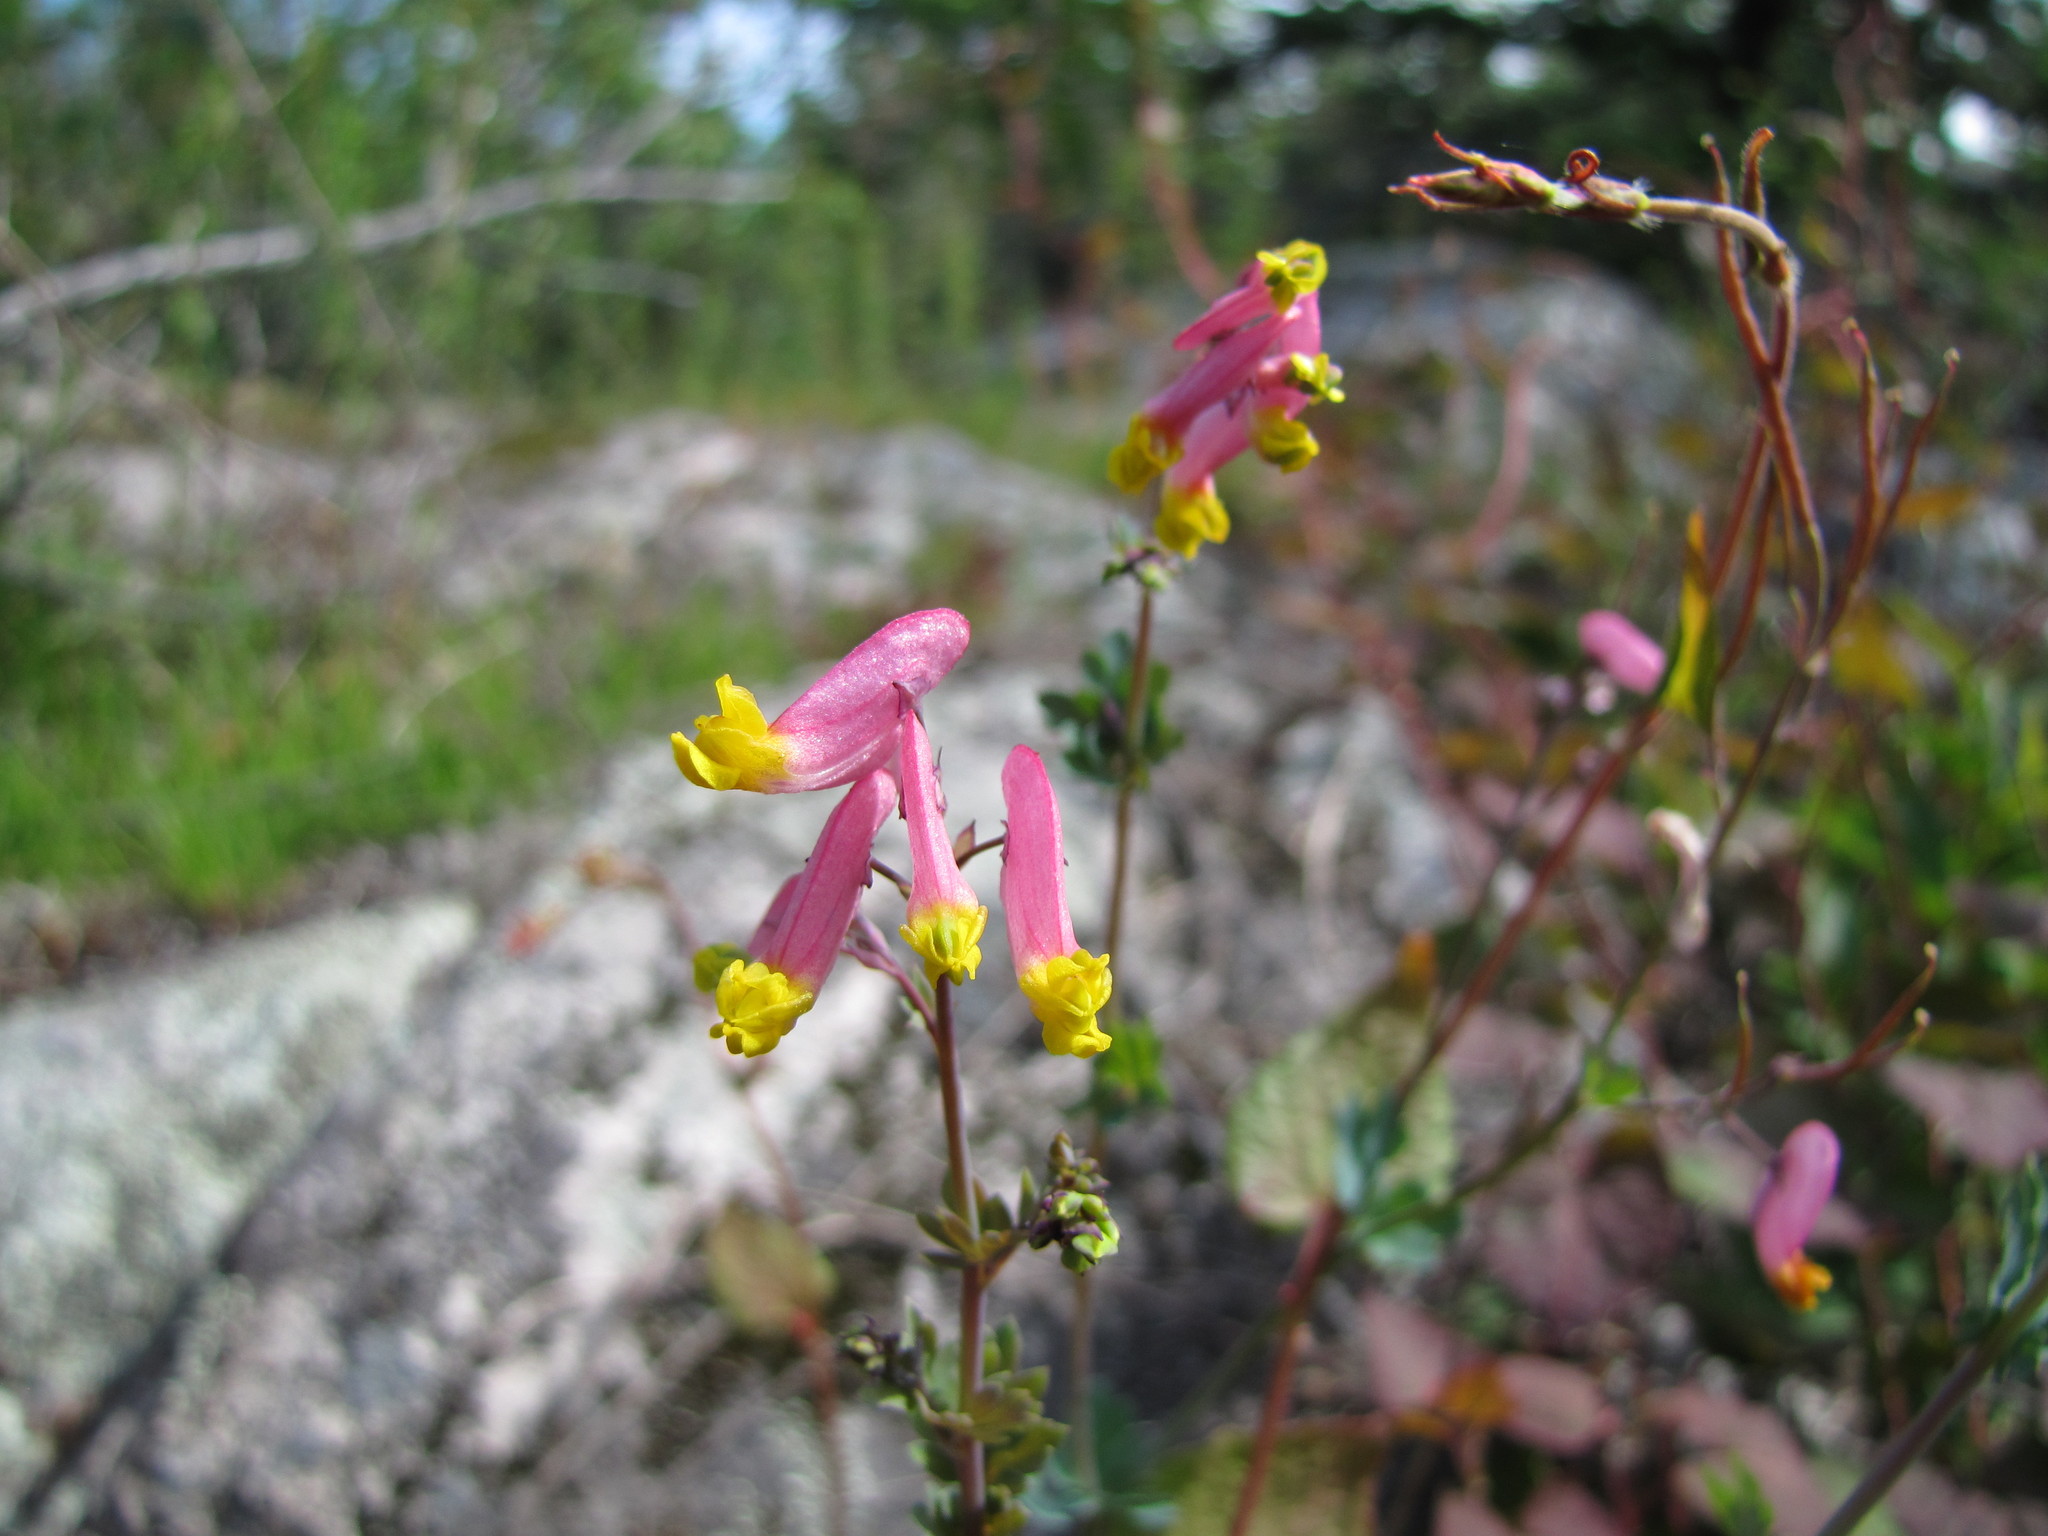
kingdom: Plantae
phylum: Tracheophyta
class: Magnoliopsida
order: Ranunculales
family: Papaveraceae
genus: Capnoides
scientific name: Capnoides sempervirens
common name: Rock harlequin
